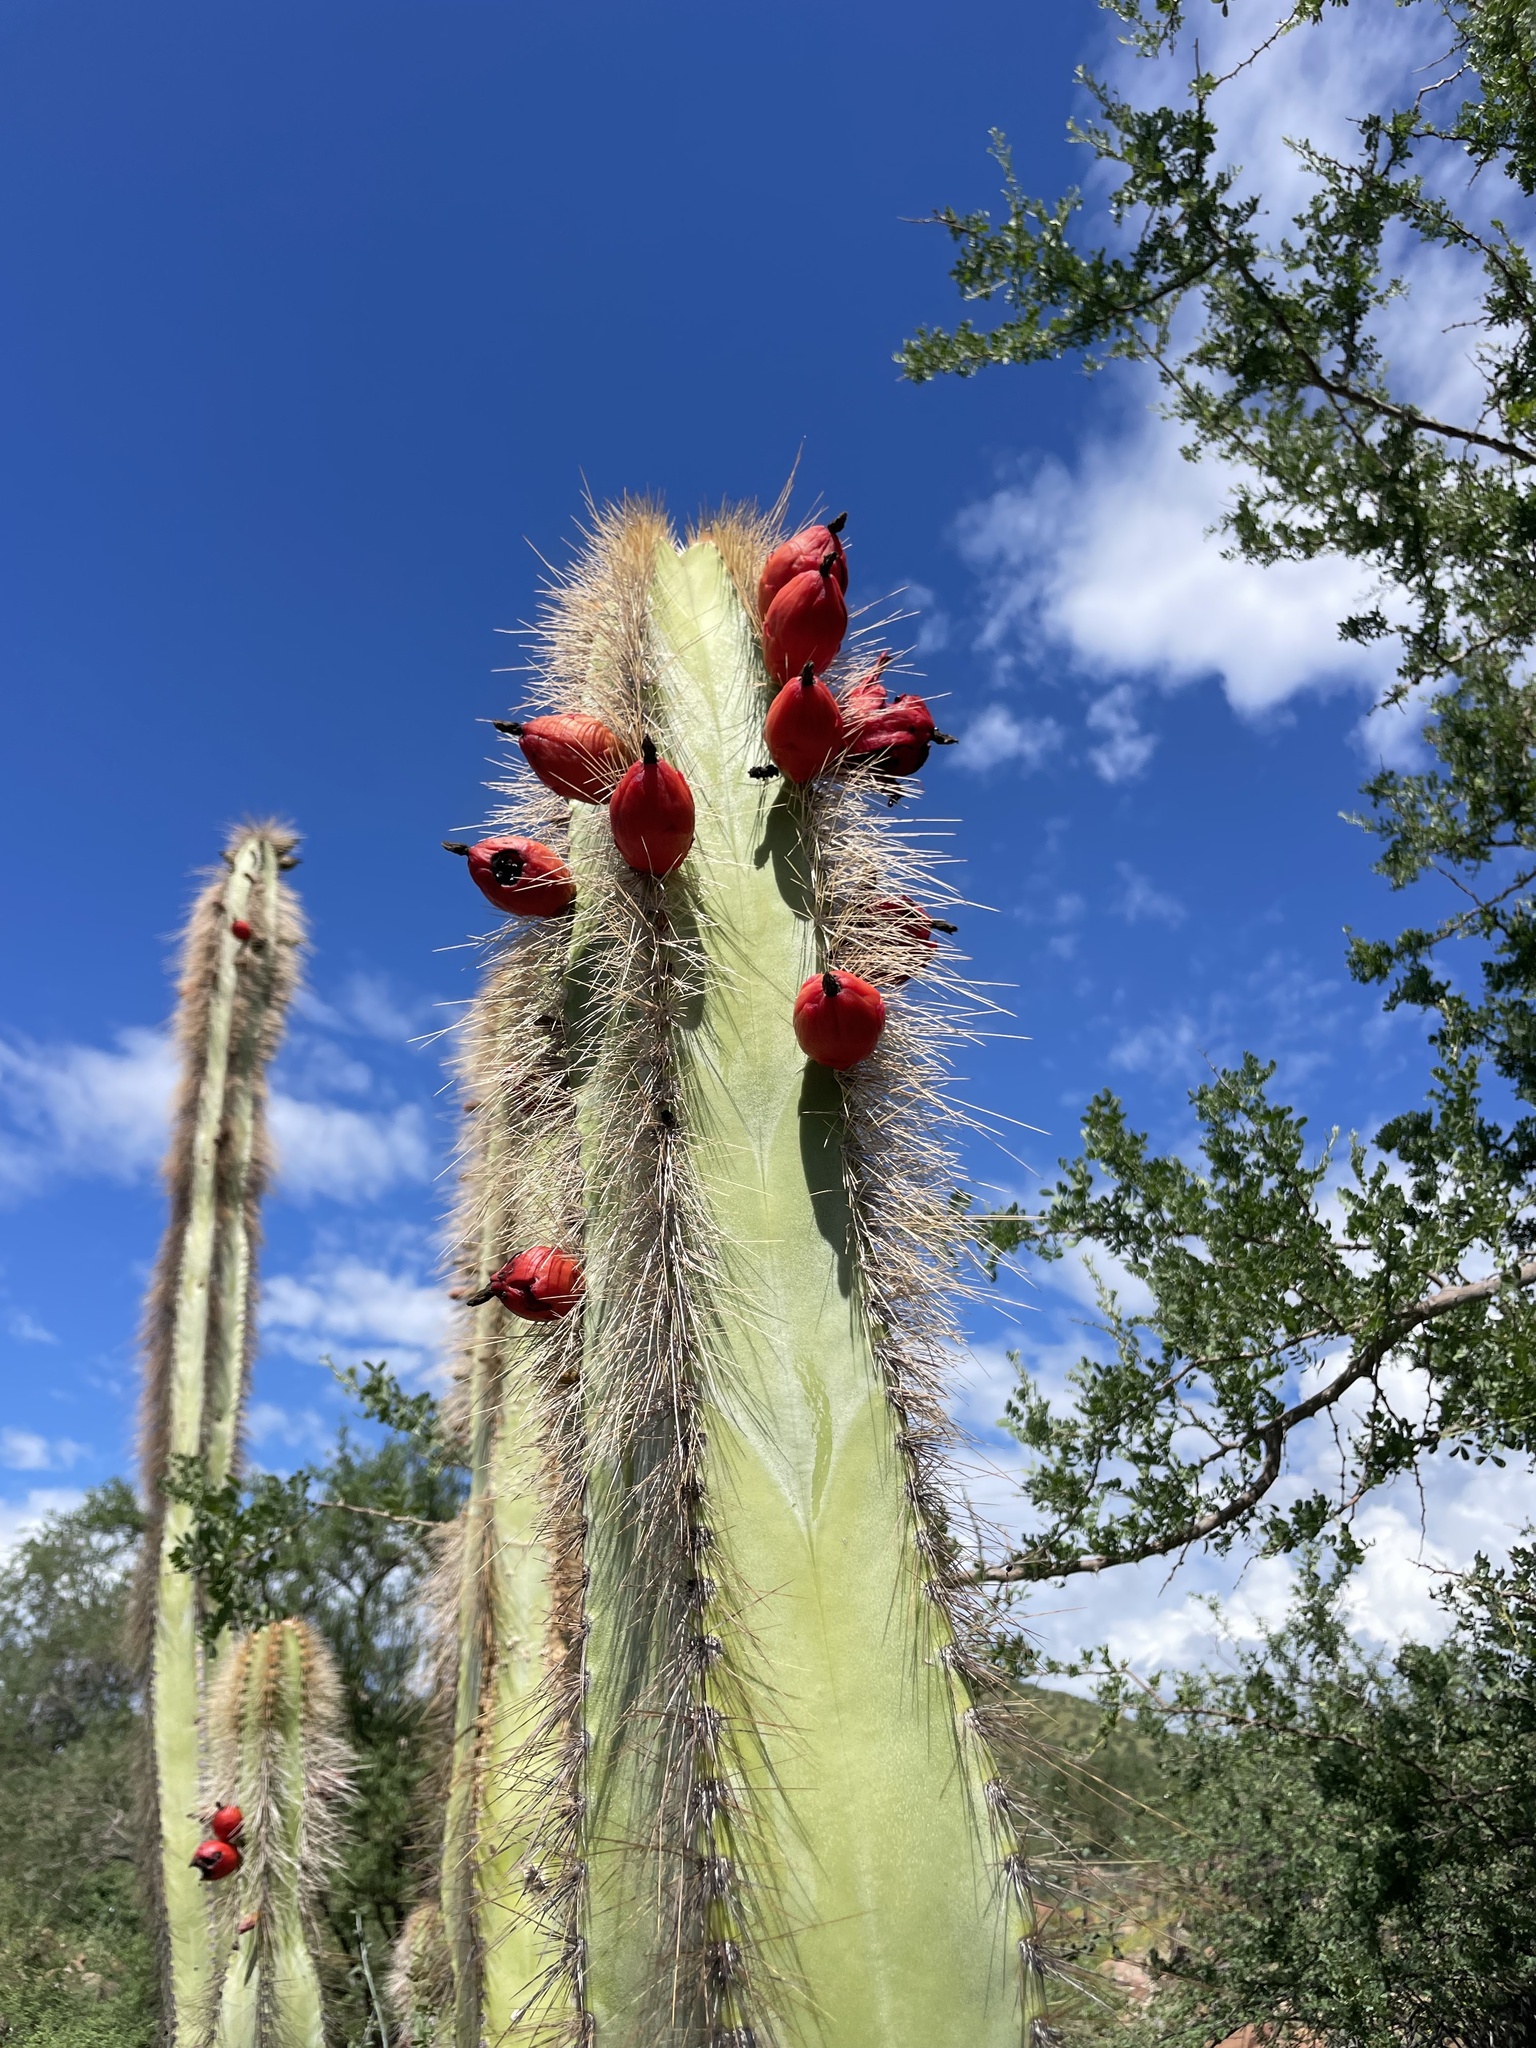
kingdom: Plantae
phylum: Tracheophyta
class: Magnoliopsida
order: Caryophyllales
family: Cactaceae
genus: Pachycereus
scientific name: Pachycereus schottii
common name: Senita cactus
